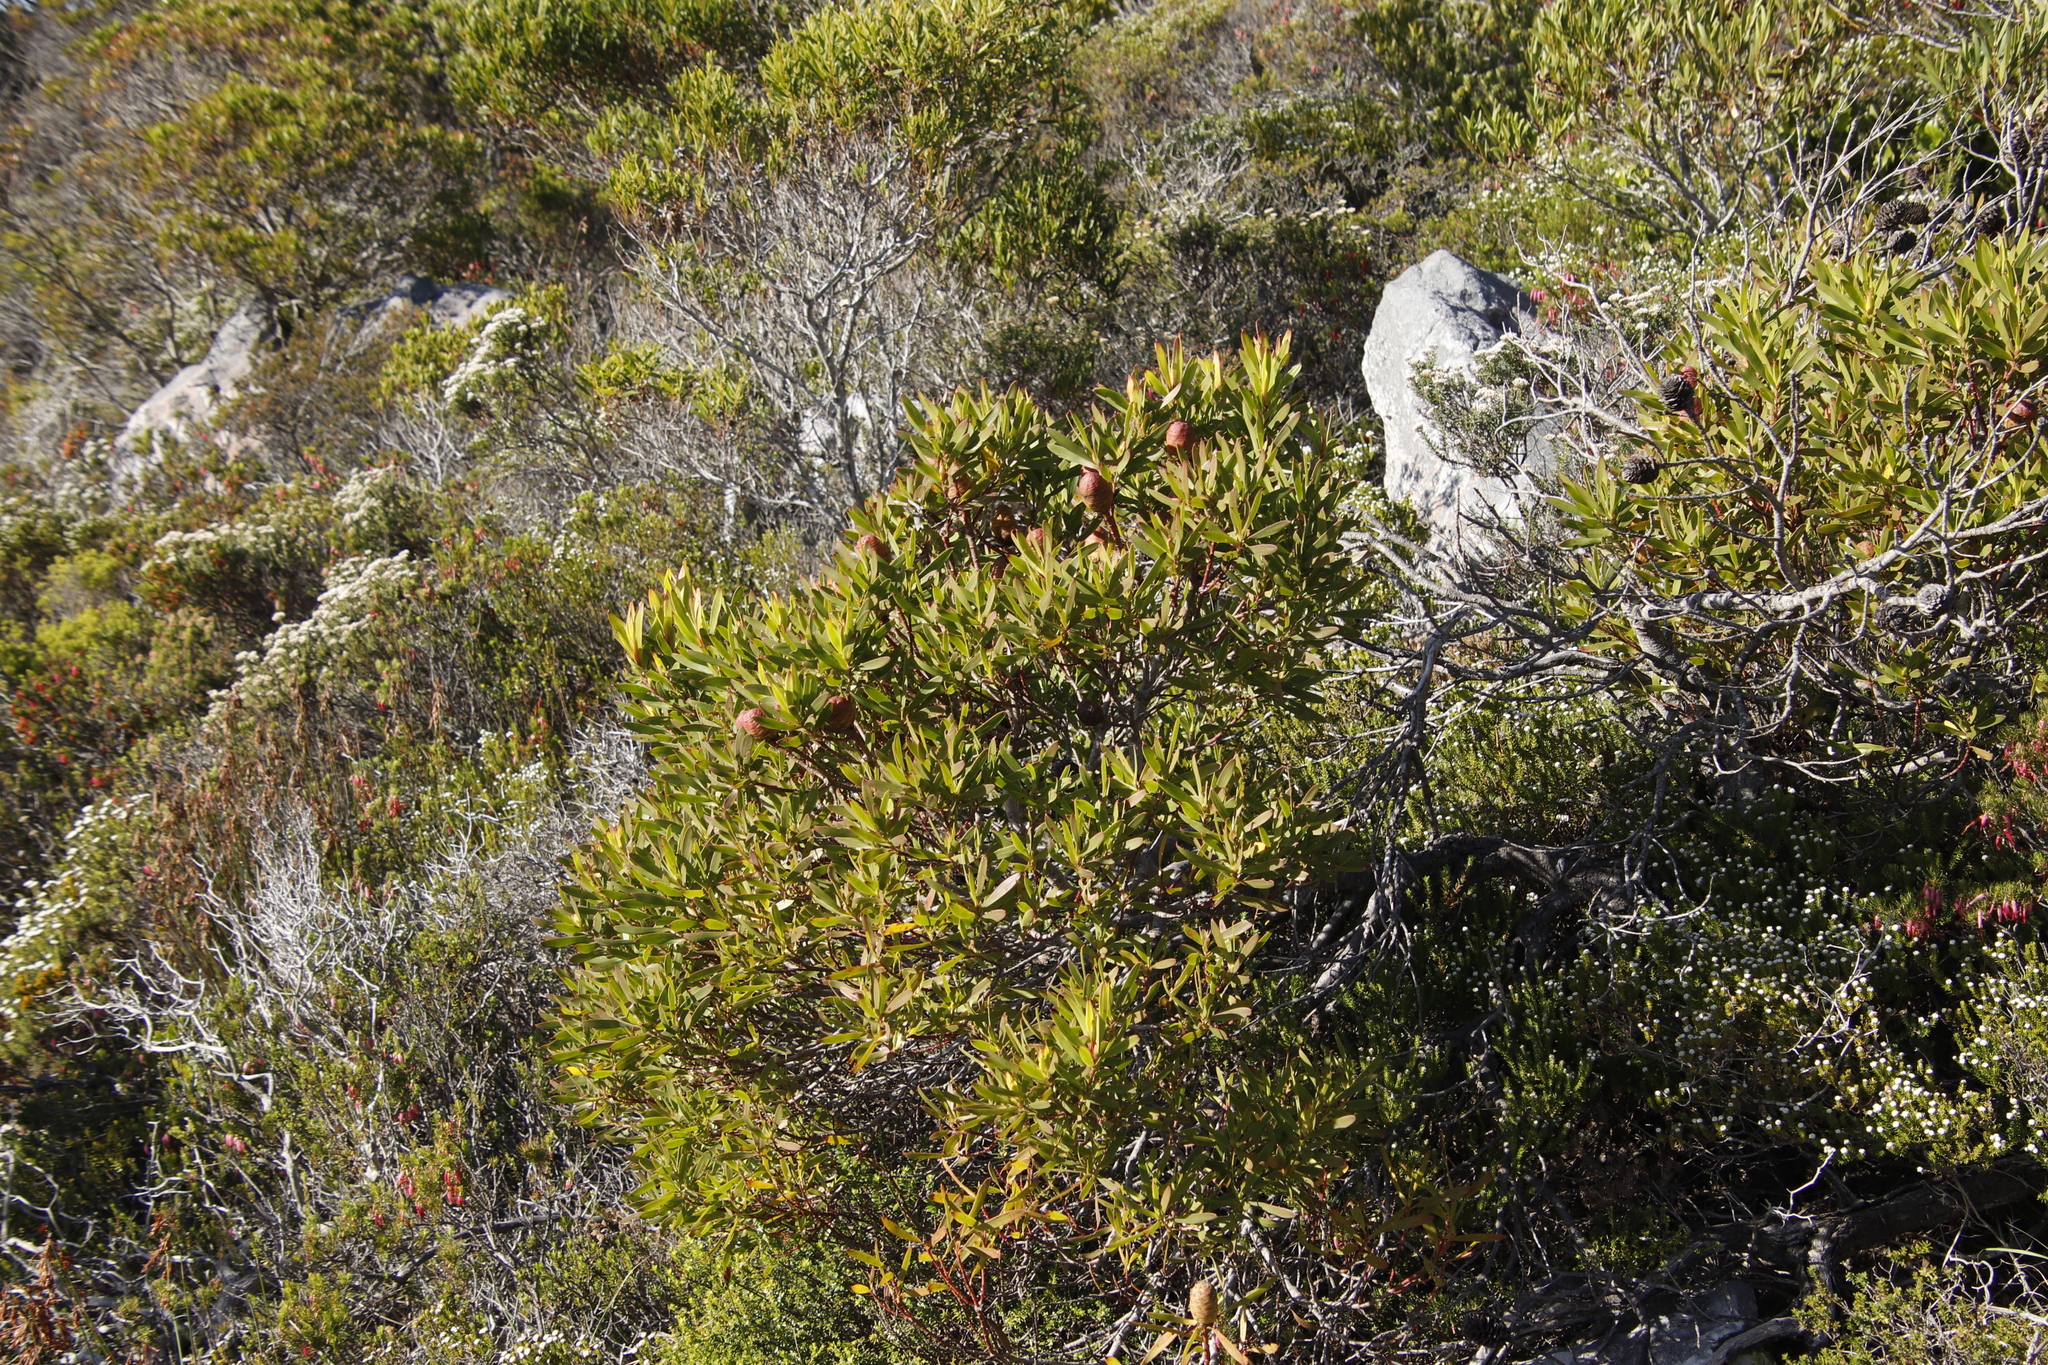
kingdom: Plantae
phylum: Tracheophyta
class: Magnoliopsida
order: Proteales
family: Proteaceae
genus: Leucadendron
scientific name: Leucadendron coniferum
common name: Dune conebush
